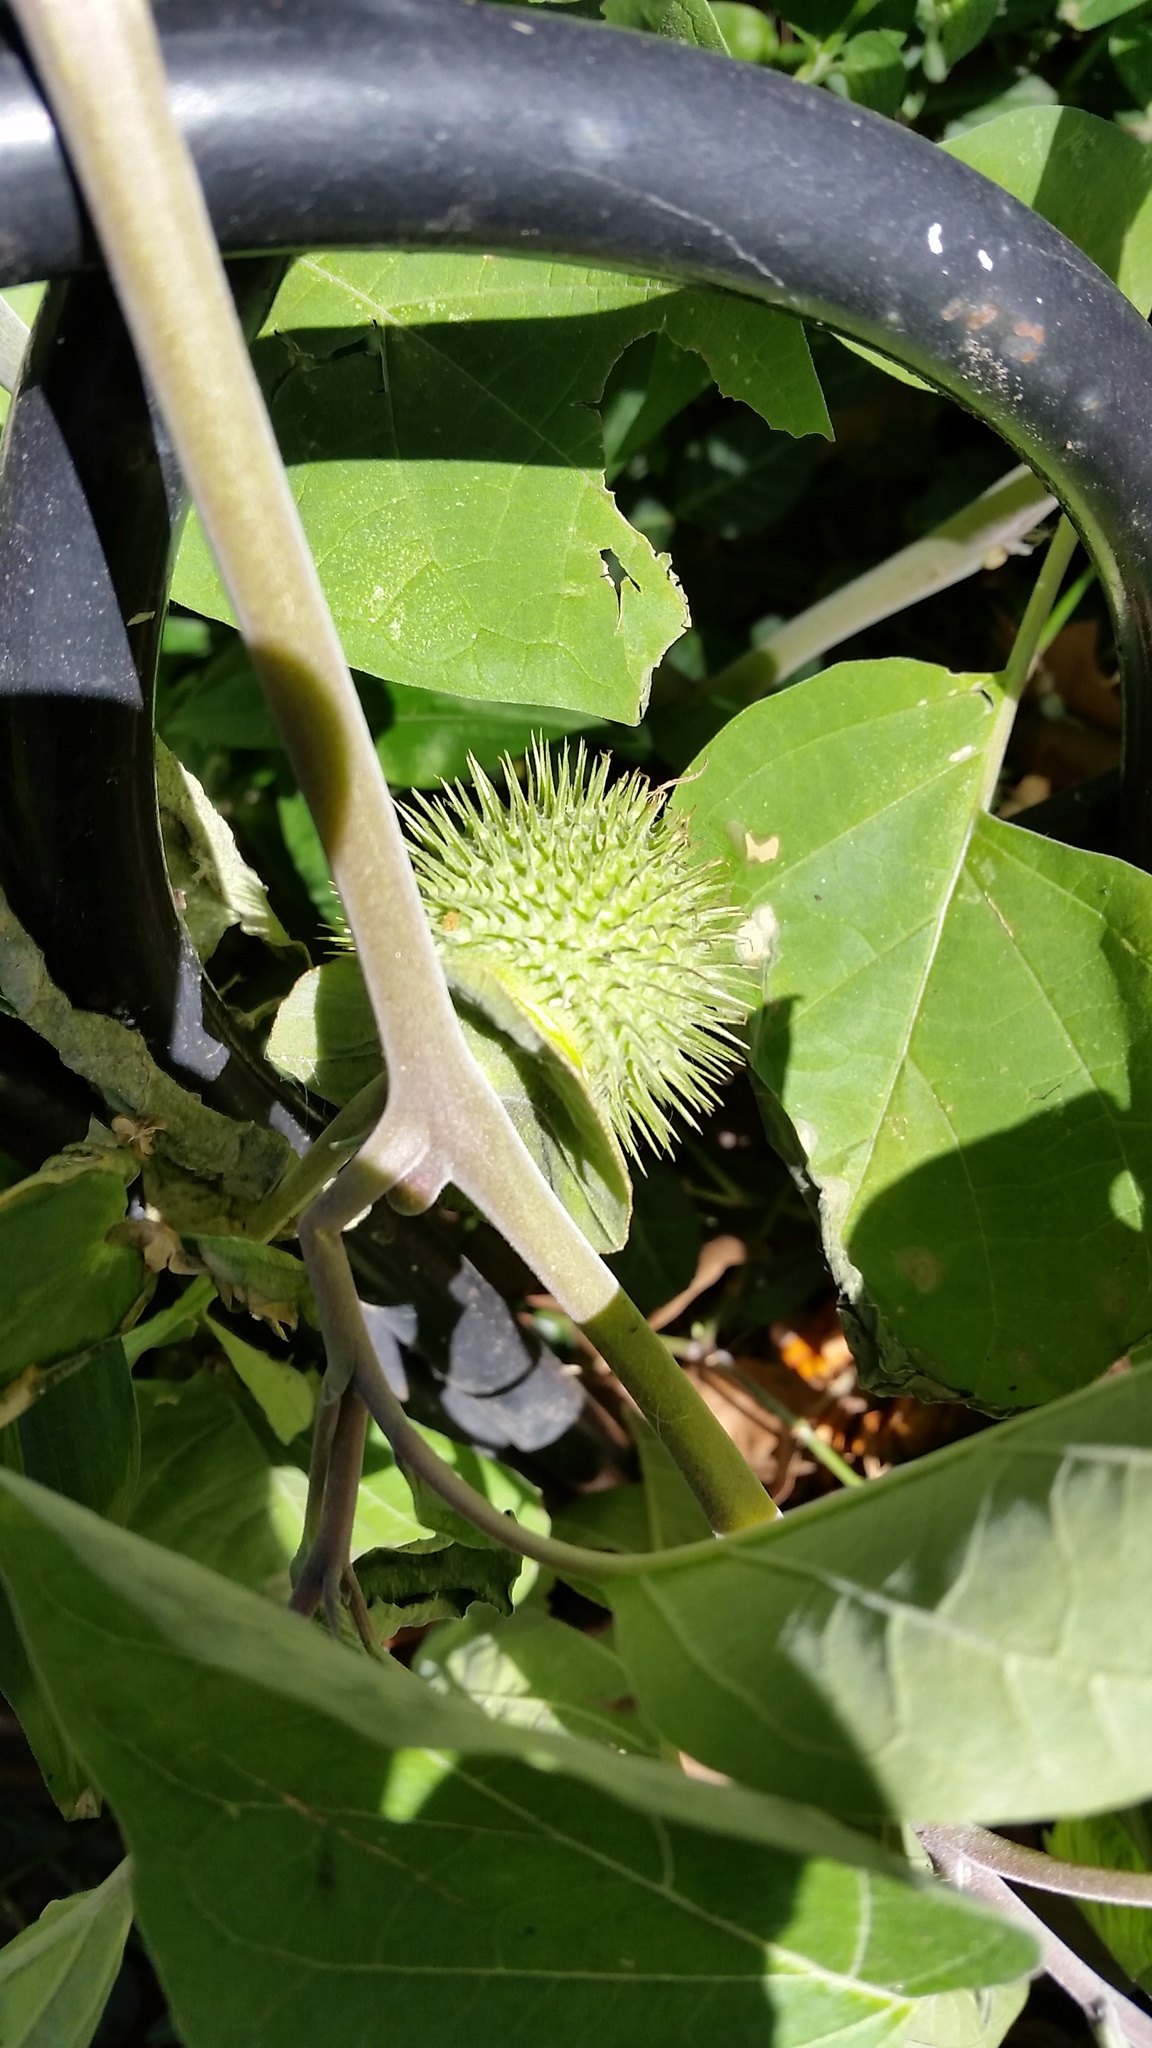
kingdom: Plantae
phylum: Tracheophyta
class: Magnoliopsida
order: Solanales
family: Solanaceae
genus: Datura
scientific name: Datura wrightii
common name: Sacred thorn-apple
